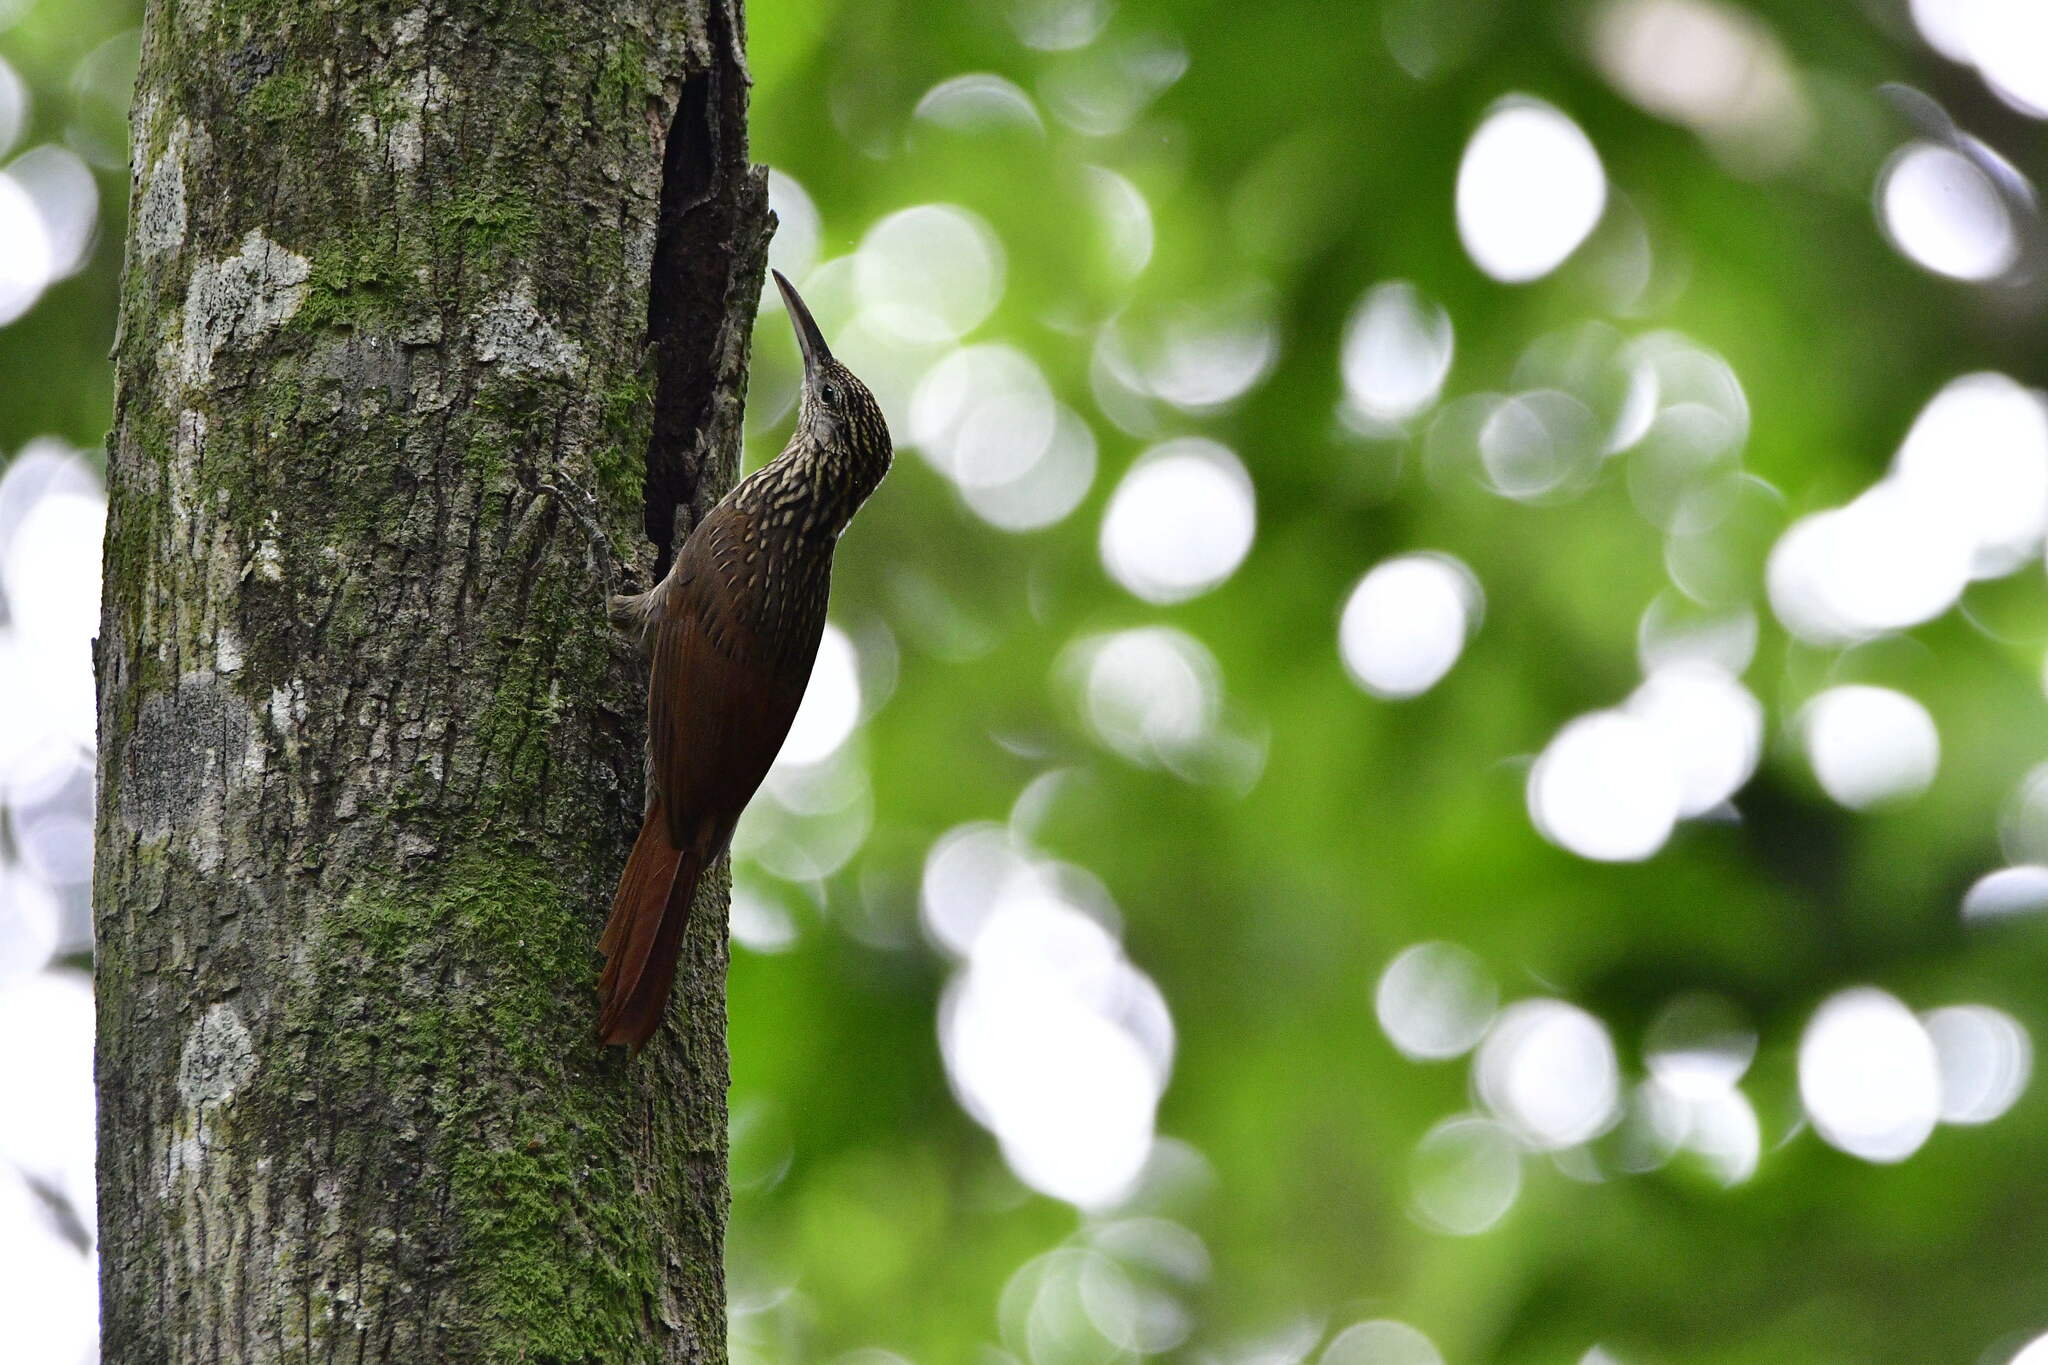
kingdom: Animalia
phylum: Chordata
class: Aves
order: Passeriformes
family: Furnariidae
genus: Xiphorhynchus
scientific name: Xiphorhynchus flavigaster
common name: Ivory-billed woodcreeper
